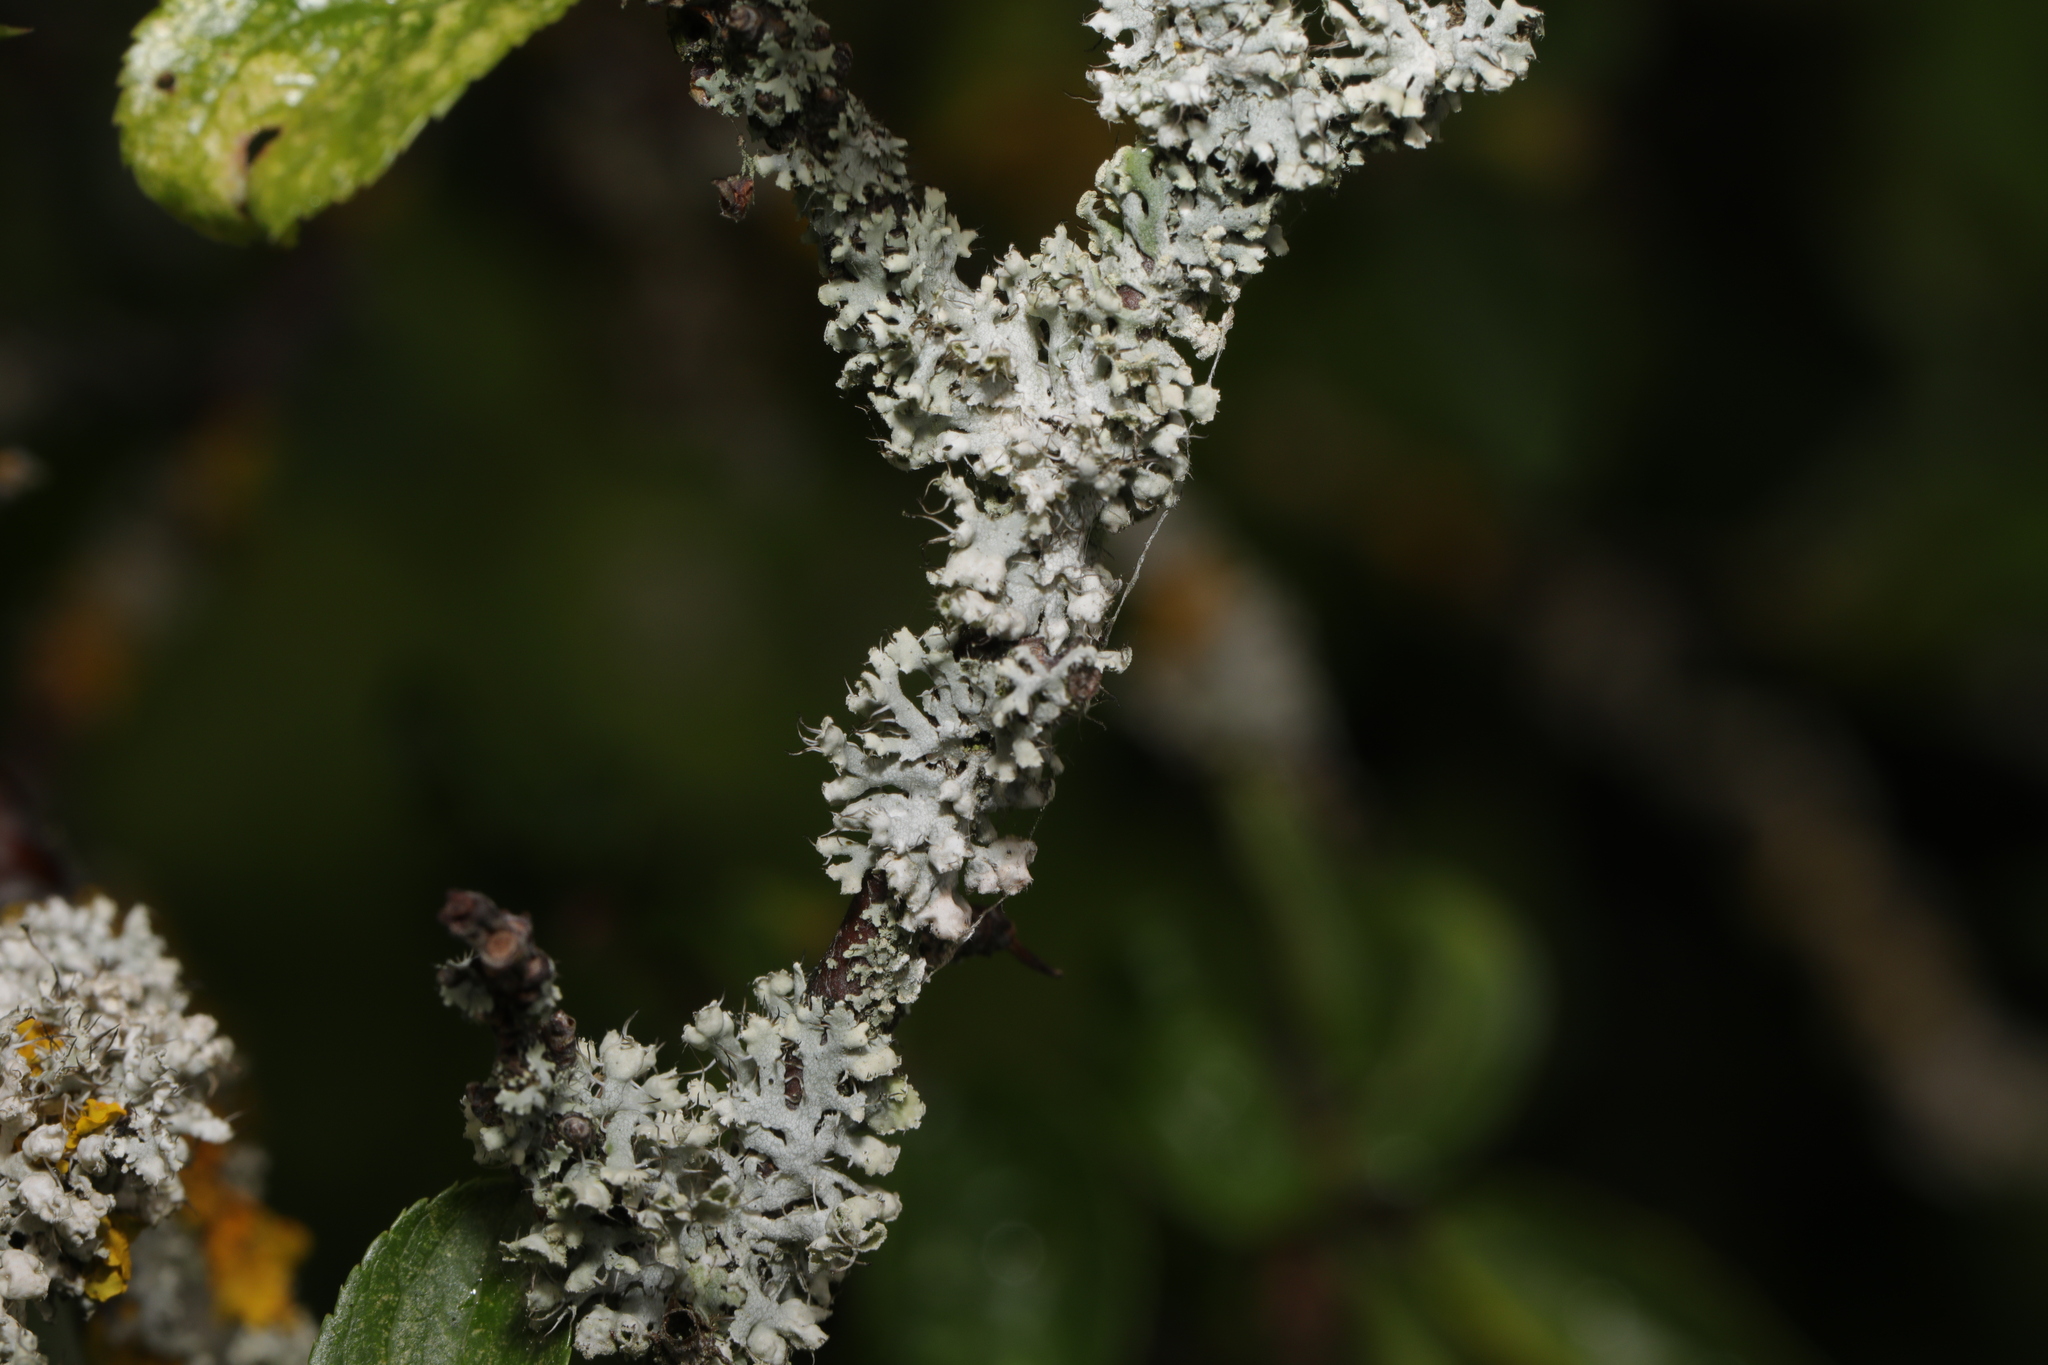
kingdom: Fungi
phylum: Ascomycota
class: Lecanoromycetes
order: Caliciales
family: Physciaceae
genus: Physcia
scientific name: Physcia adscendens
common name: Hooded rosette lichen
